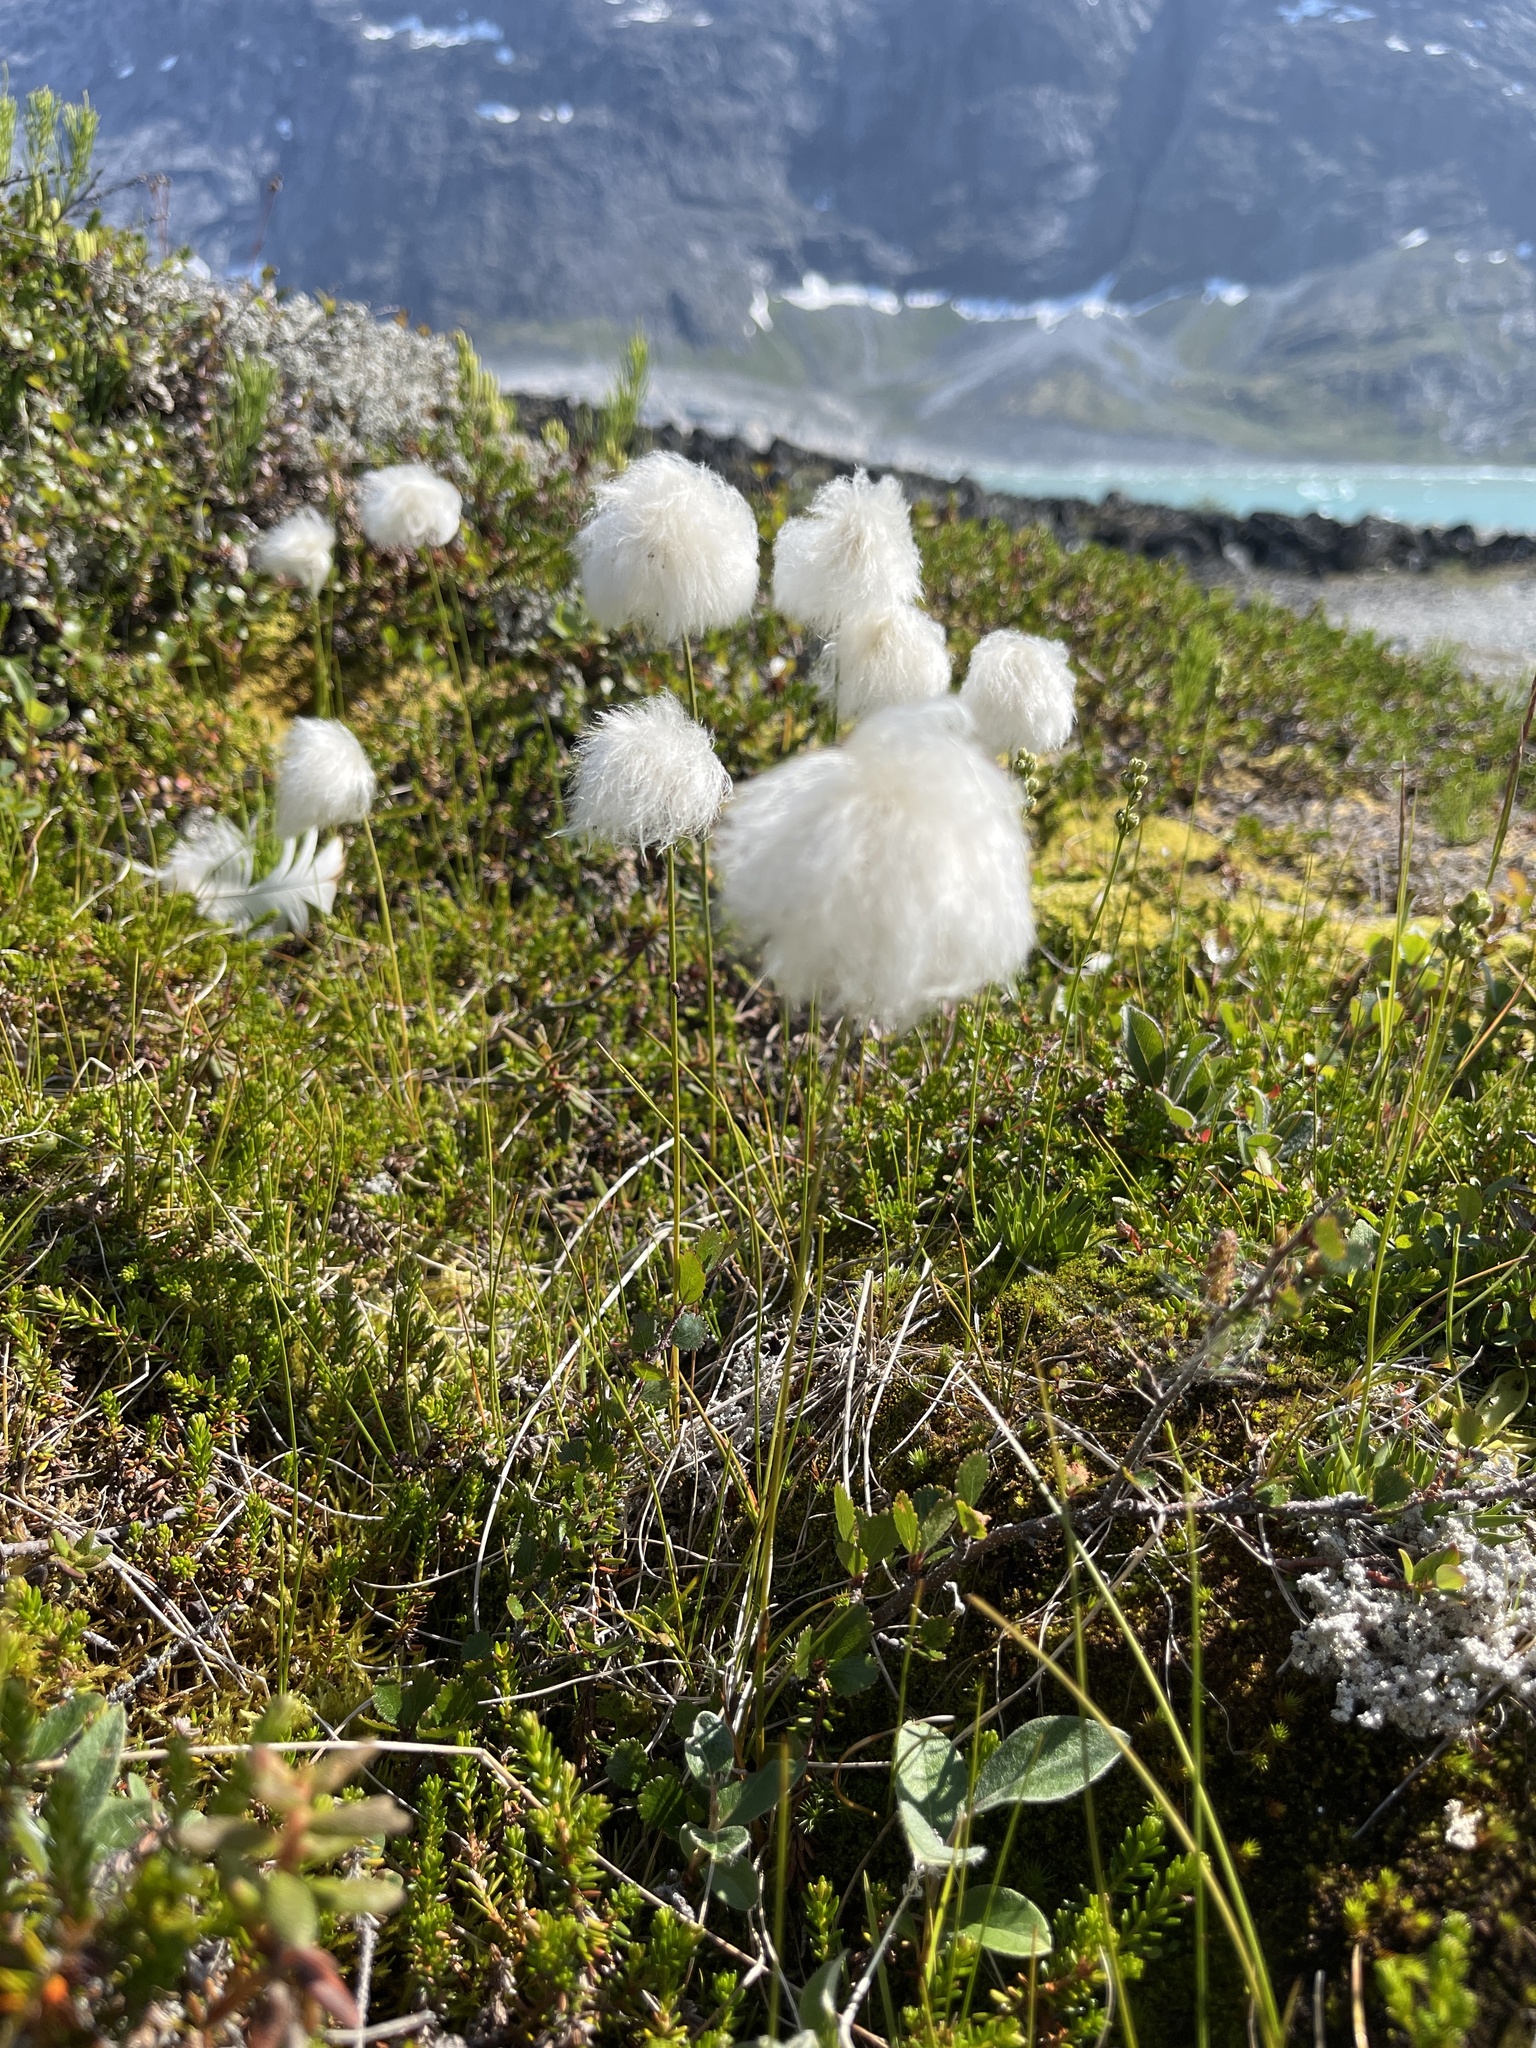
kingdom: Plantae
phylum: Tracheophyta
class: Liliopsida
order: Poales
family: Cyperaceae
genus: Eriophorum
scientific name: Eriophorum scheuchzeri
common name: Scheuchzer's cottongrass
